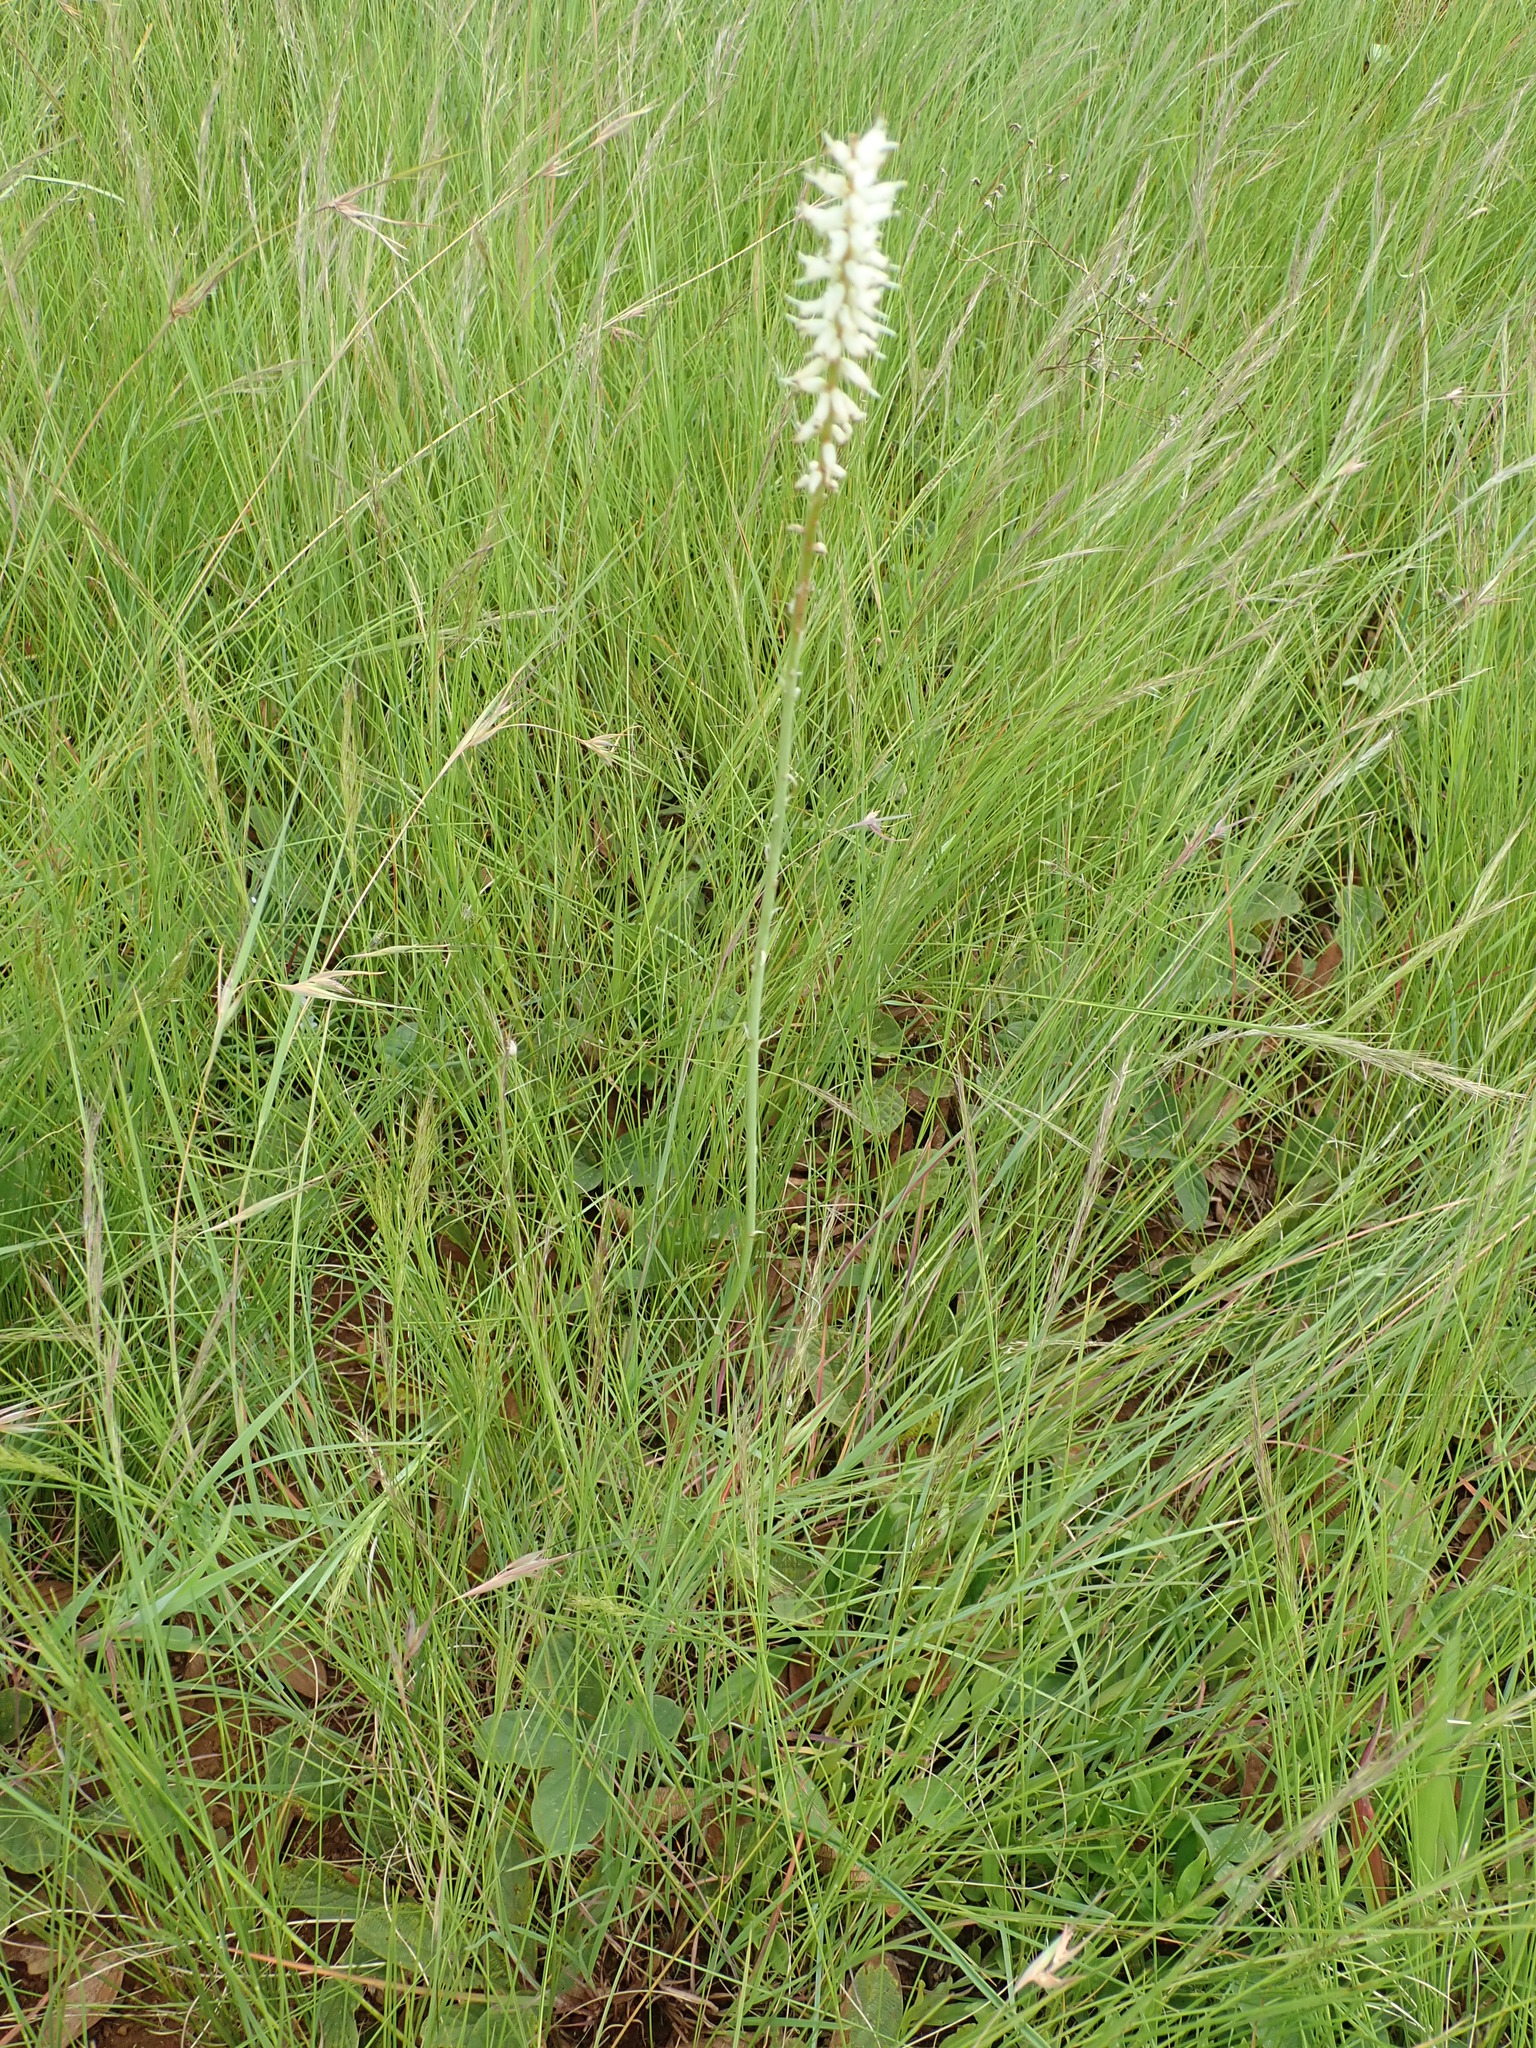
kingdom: Plantae
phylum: Tracheophyta
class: Liliopsida
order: Asparagales
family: Asphodelaceae
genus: Kniphofia
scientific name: Kniphofia buchananii
